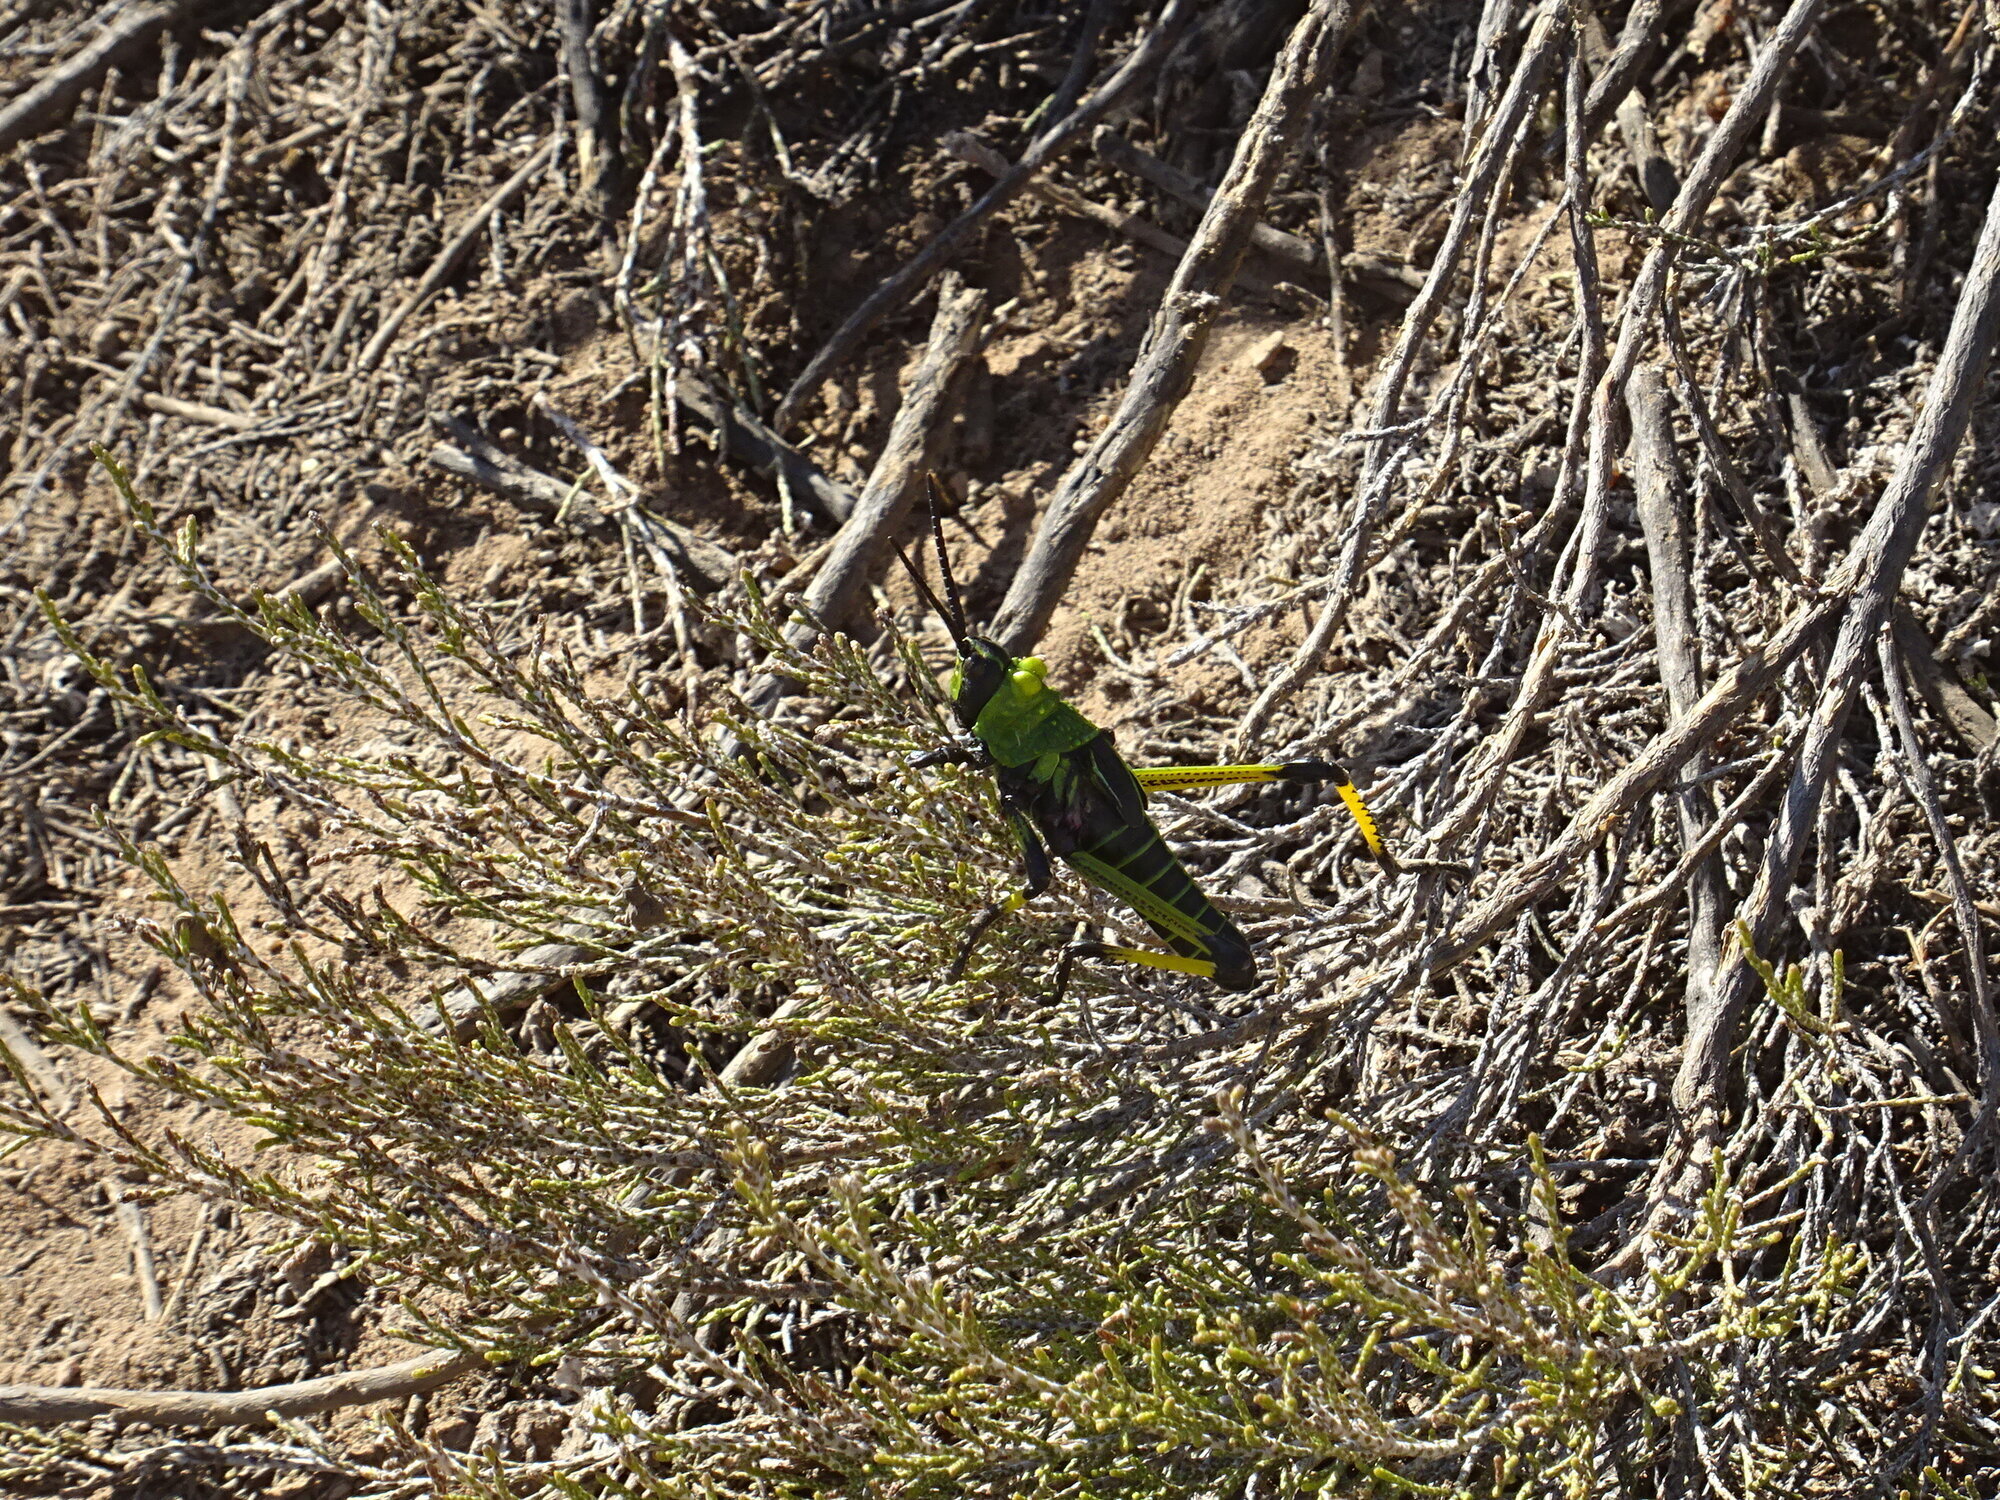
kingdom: Animalia
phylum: Arthropoda
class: Insecta
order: Orthoptera
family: Pyrgomorphidae
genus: Phymateus
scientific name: Phymateus leprosus
